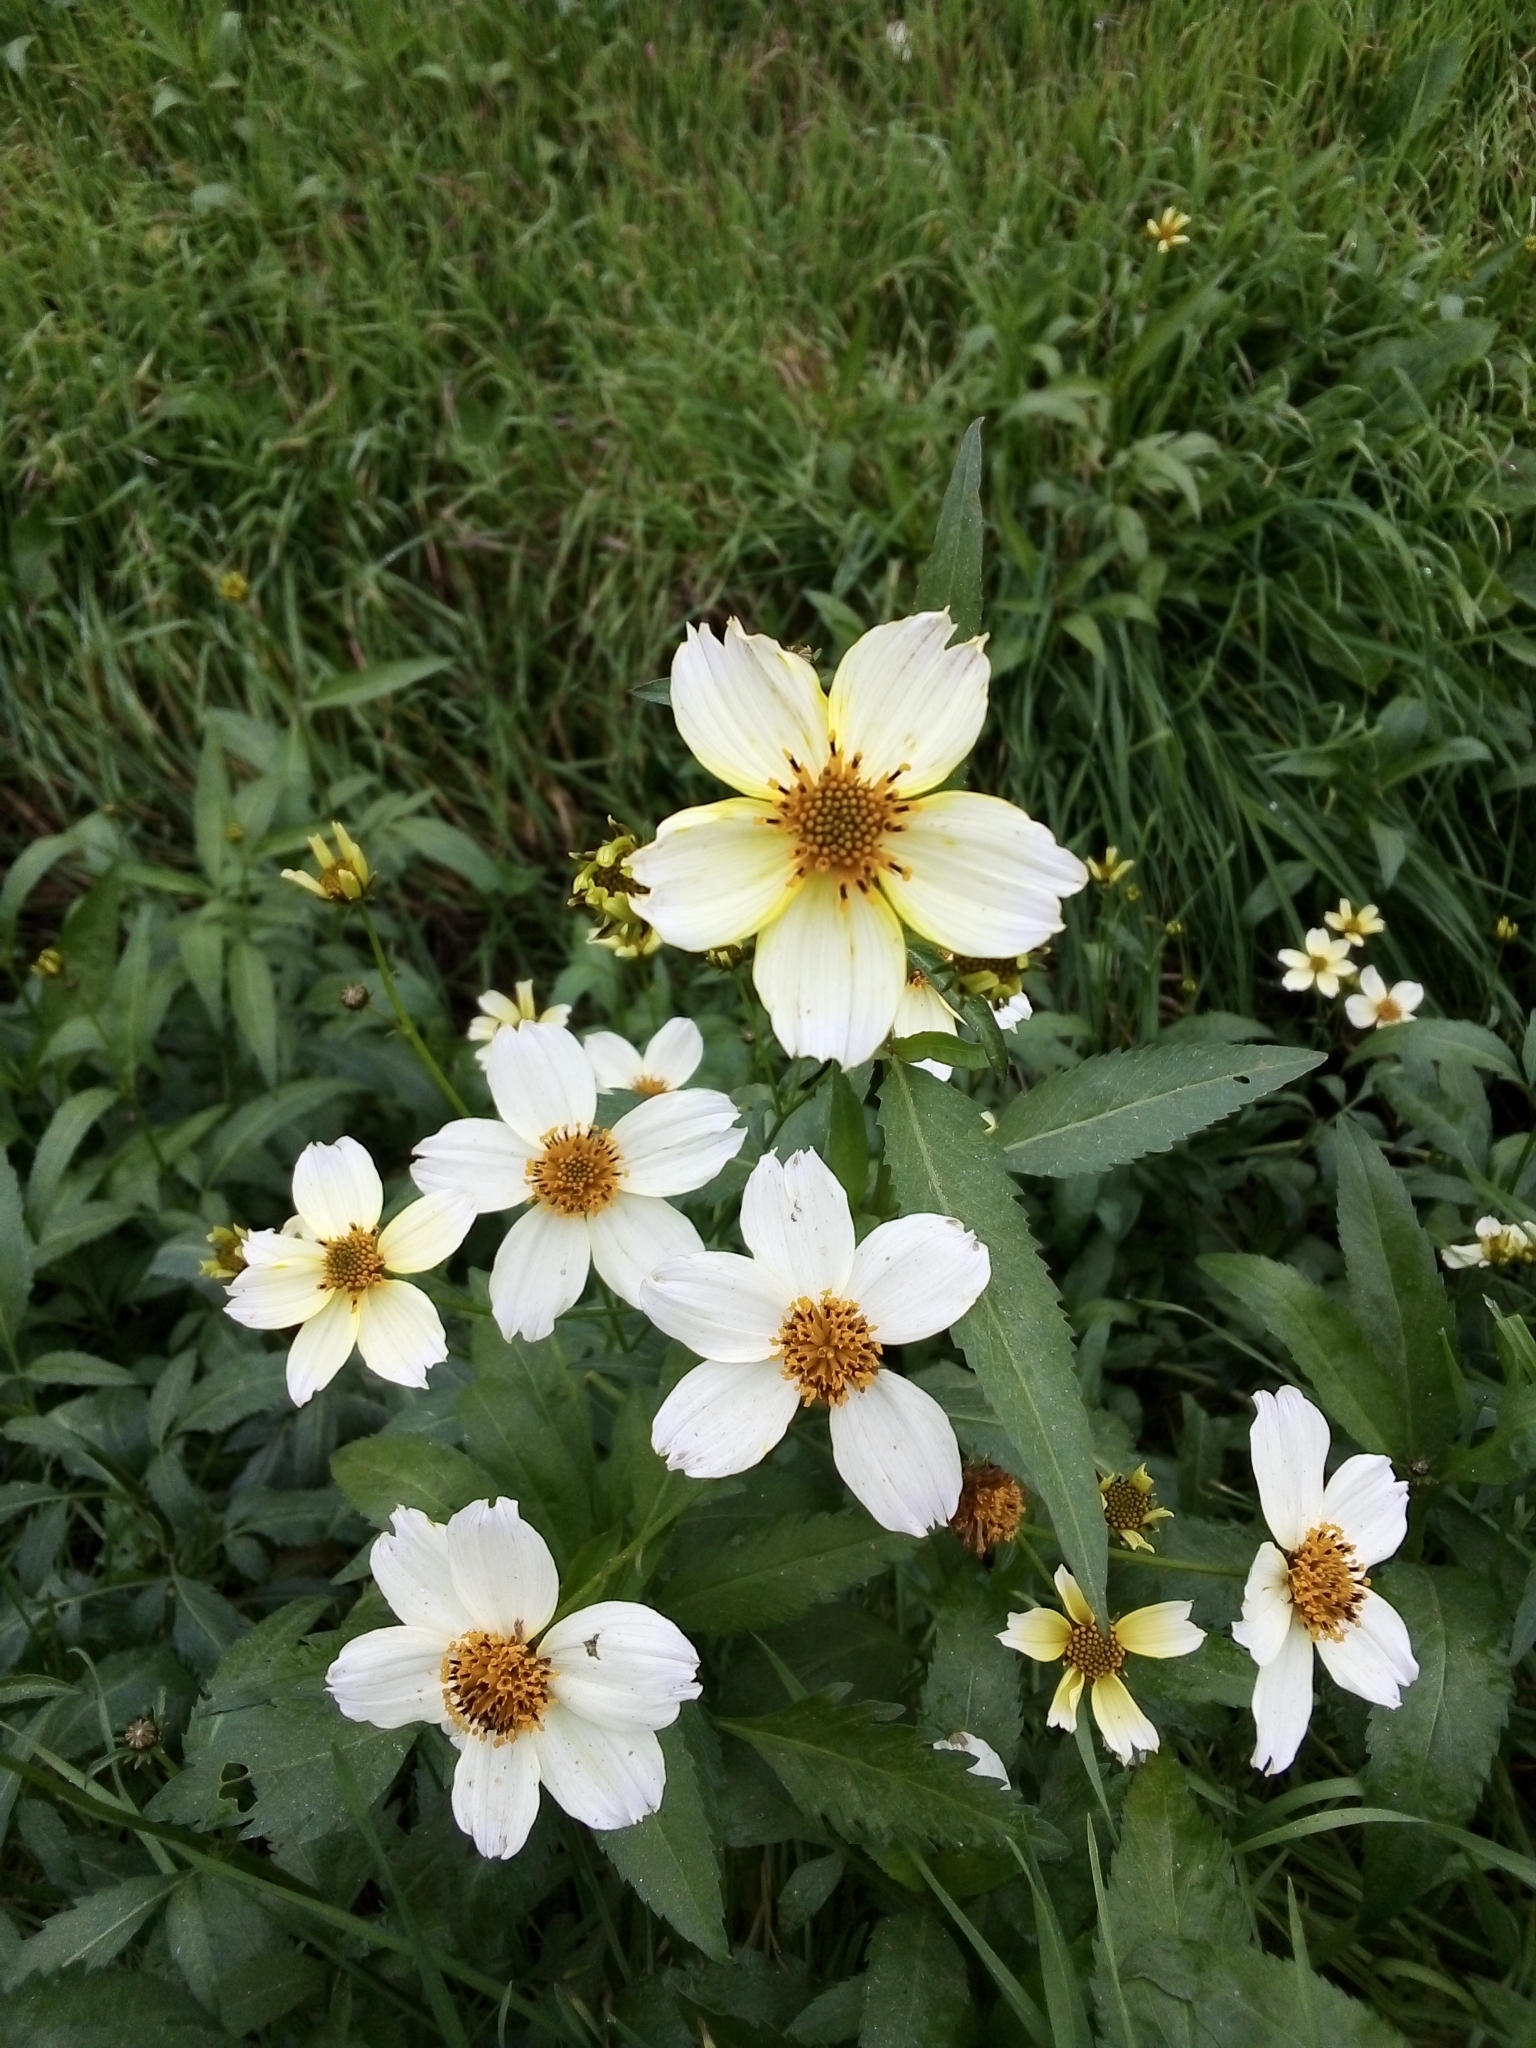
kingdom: Plantae
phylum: Tracheophyta
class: Magnoliopsida
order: Asterales
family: Asteraceae
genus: Bidens
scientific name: Bidens aurea
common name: Arizona beggar-ticks
